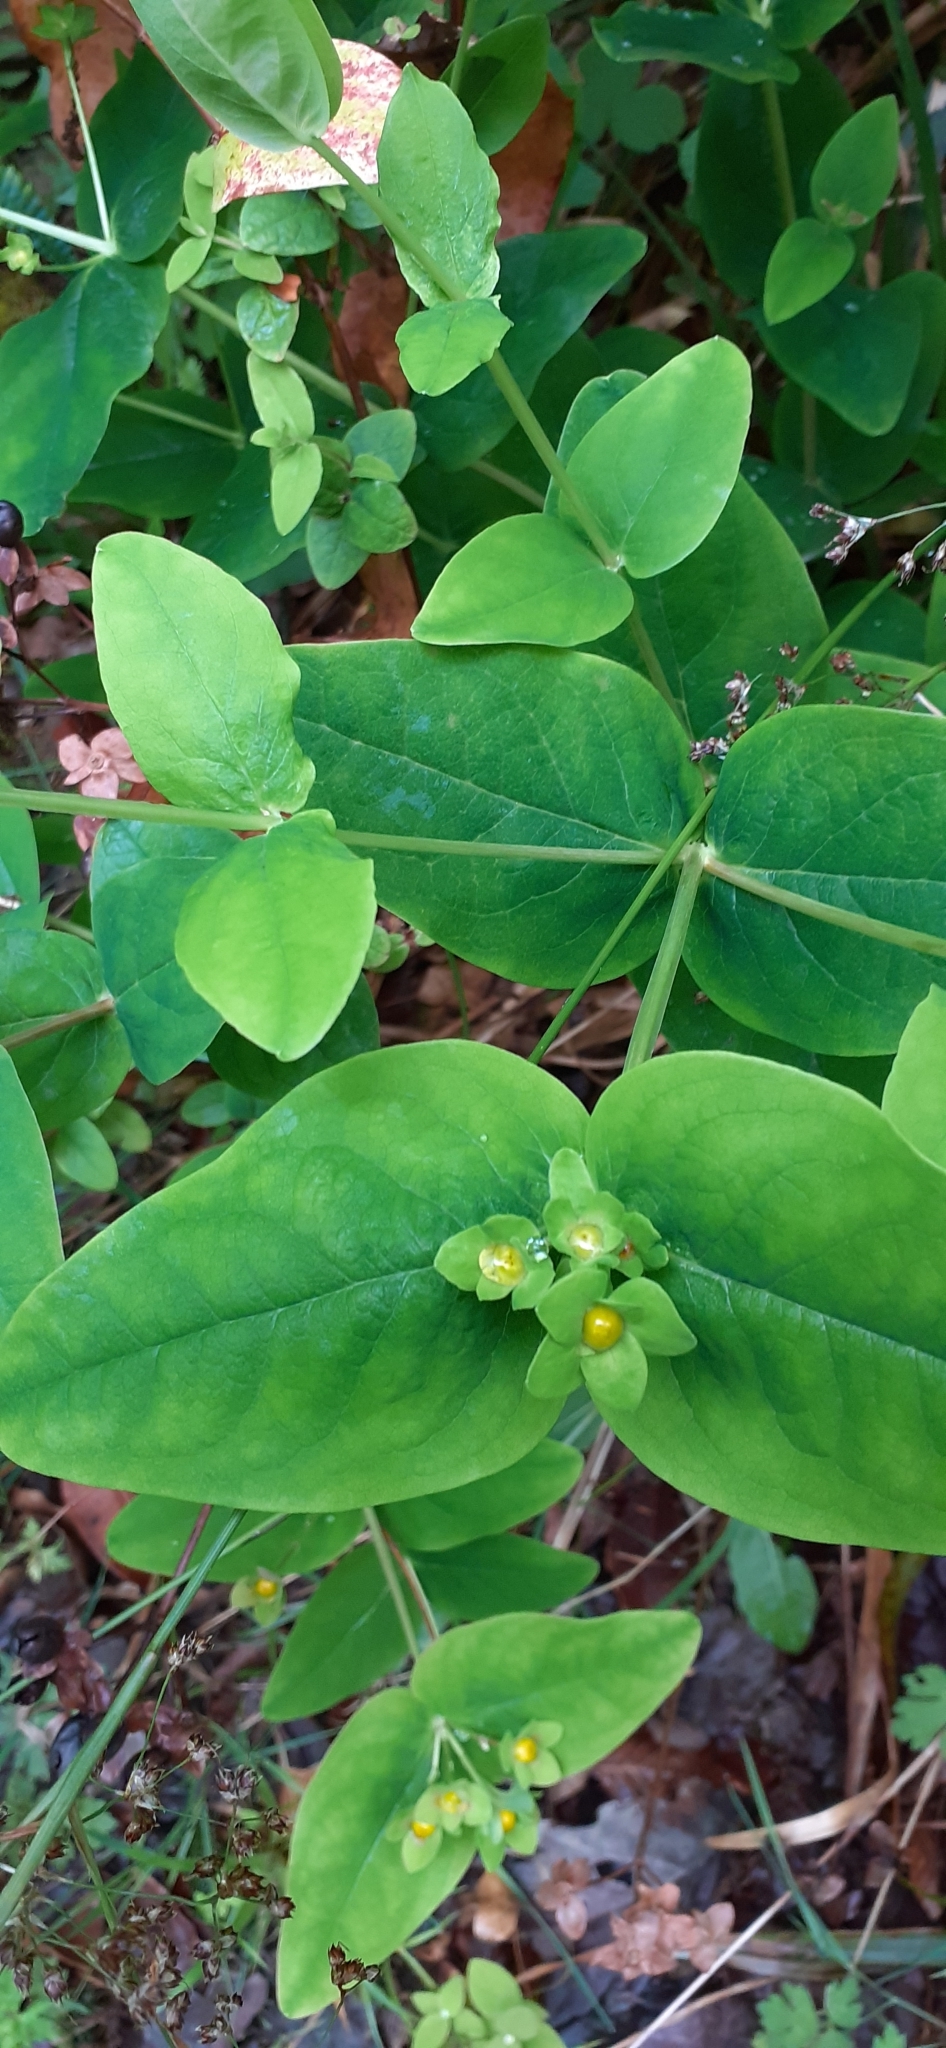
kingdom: Plantae
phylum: Tracheophyta
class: Magnoliopsida
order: Malpighiales
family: Hypericaceae
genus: Hypericum
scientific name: Hypericum androsaemum
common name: Sweet-amber
